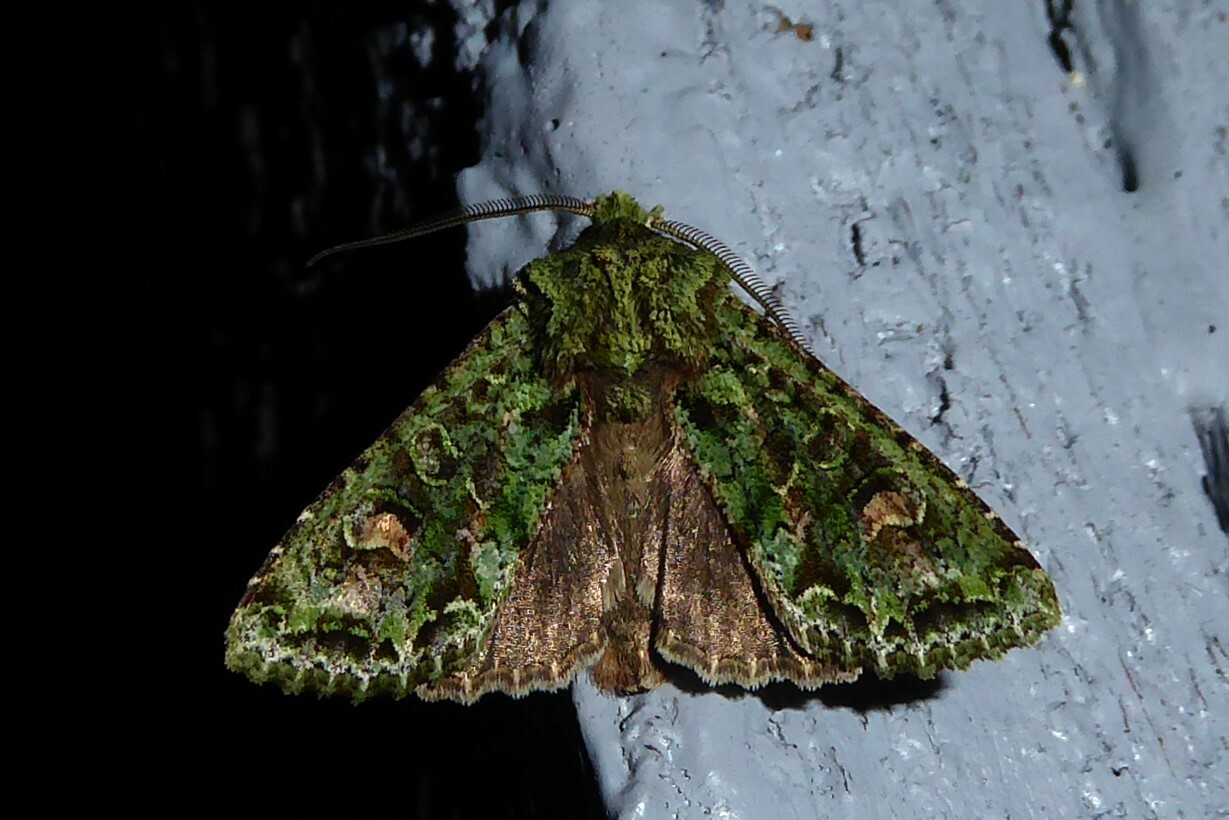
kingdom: Animalia
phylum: Arthropoda
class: Insecta
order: Lepidoptera
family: Noctuidae
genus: Ichneutica
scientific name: Ichneutica
